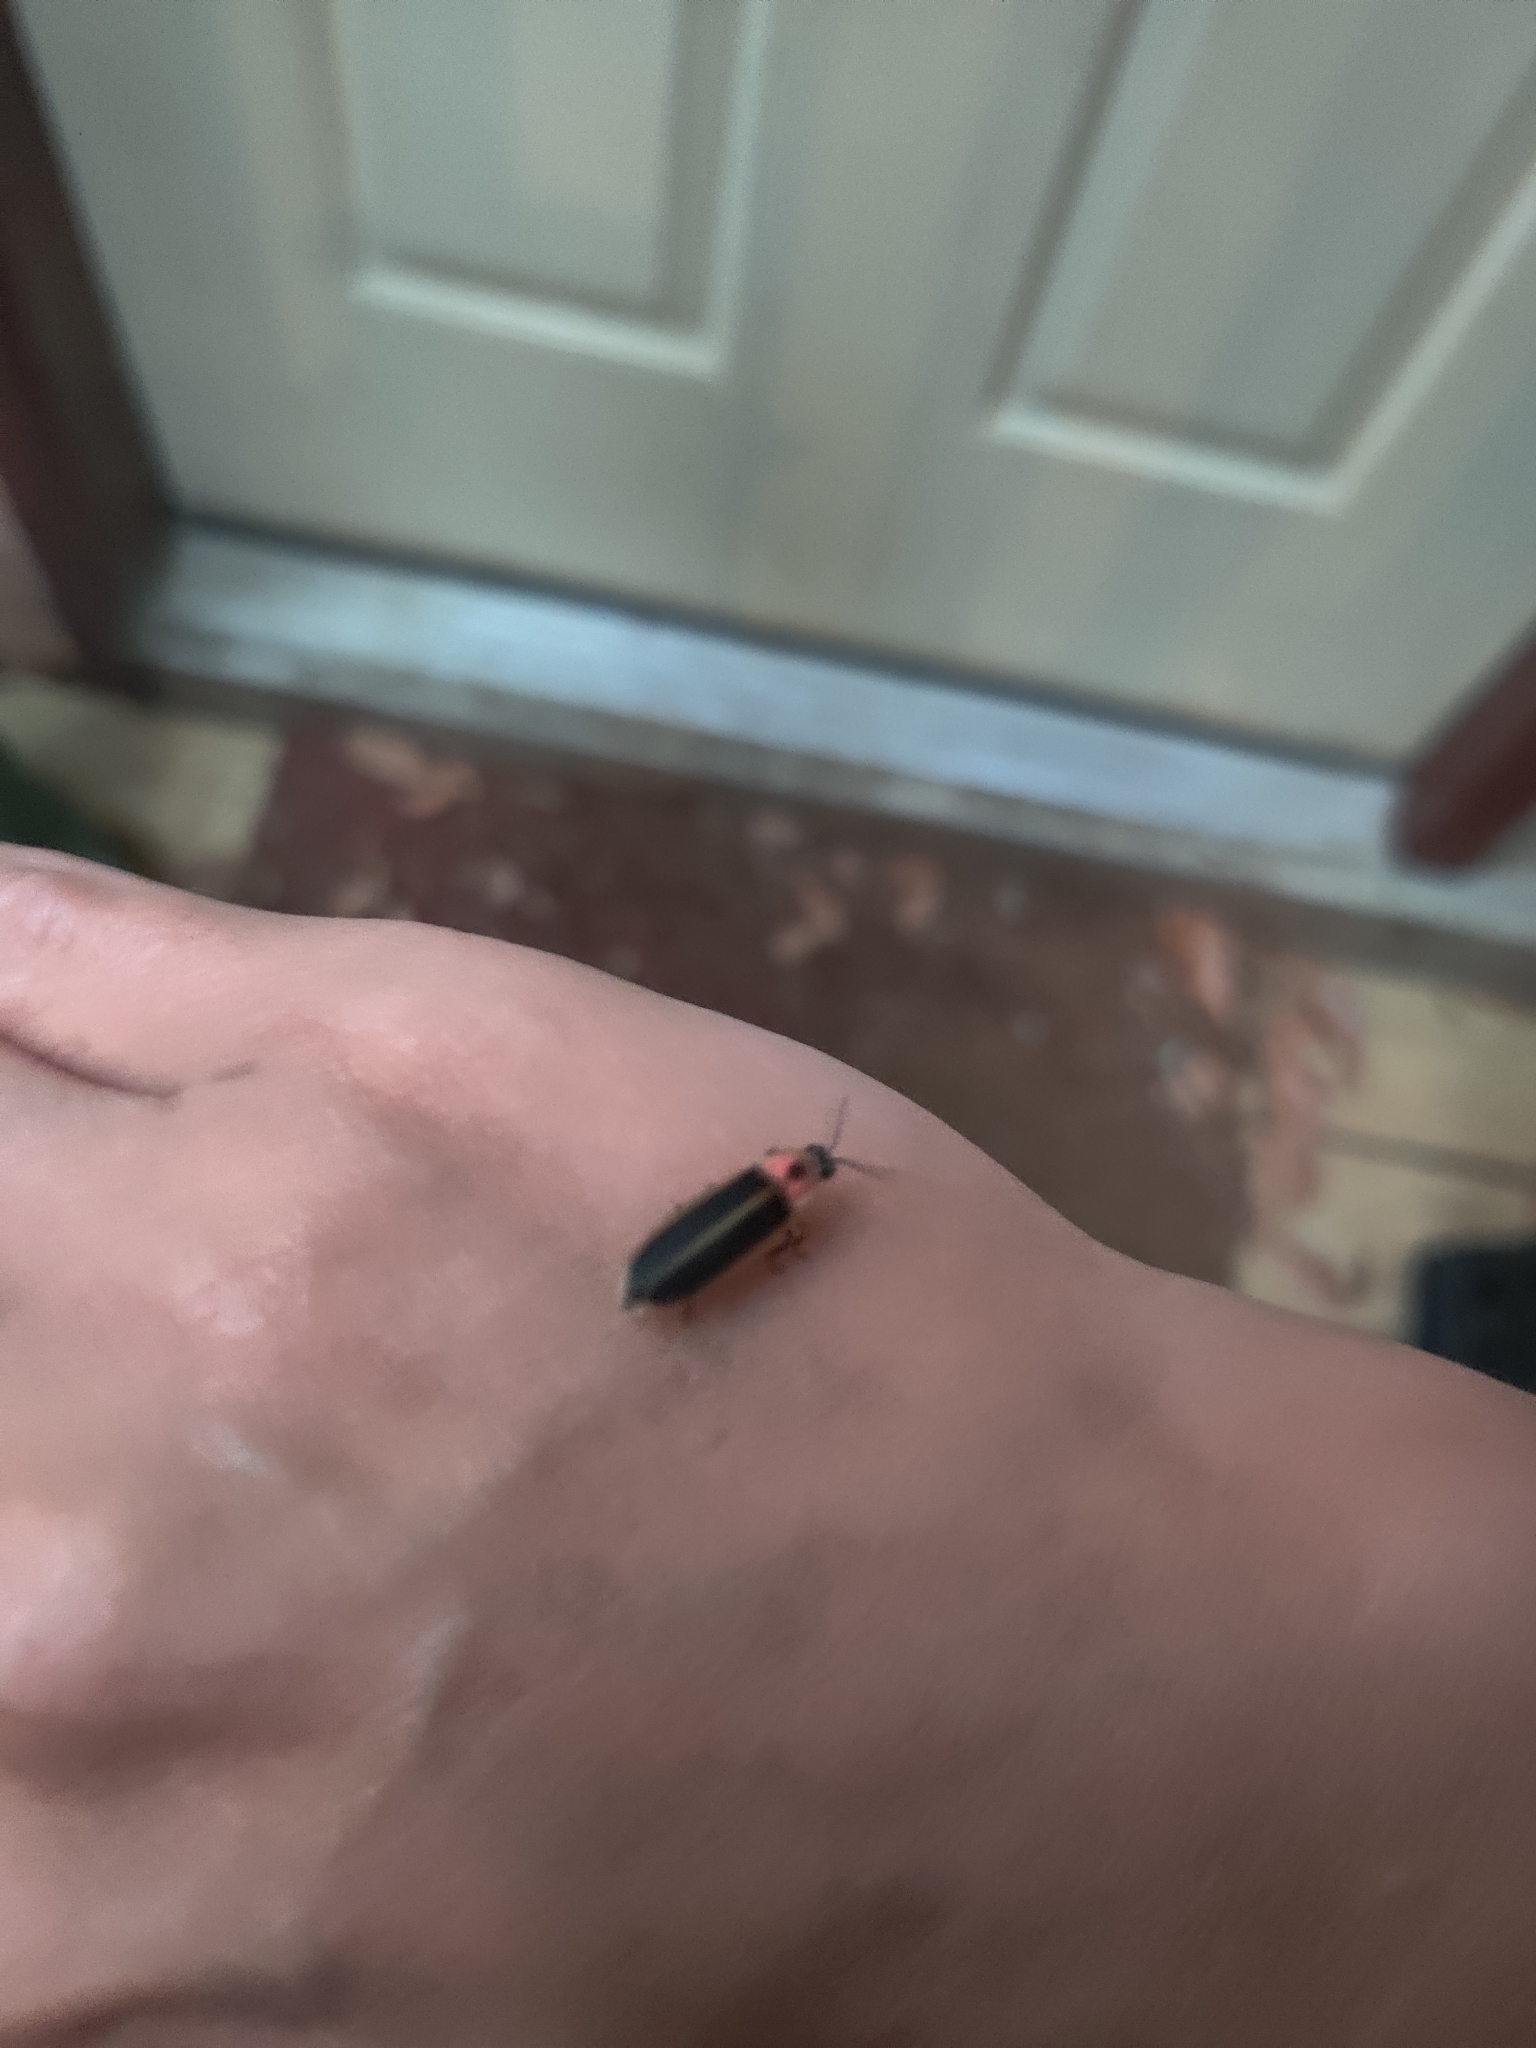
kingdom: Animalia
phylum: Arthropoda
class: Insecta
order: Coleoptera
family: Lampyridae
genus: Photinus
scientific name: Photinus pyralis
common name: Big dipper firefly
